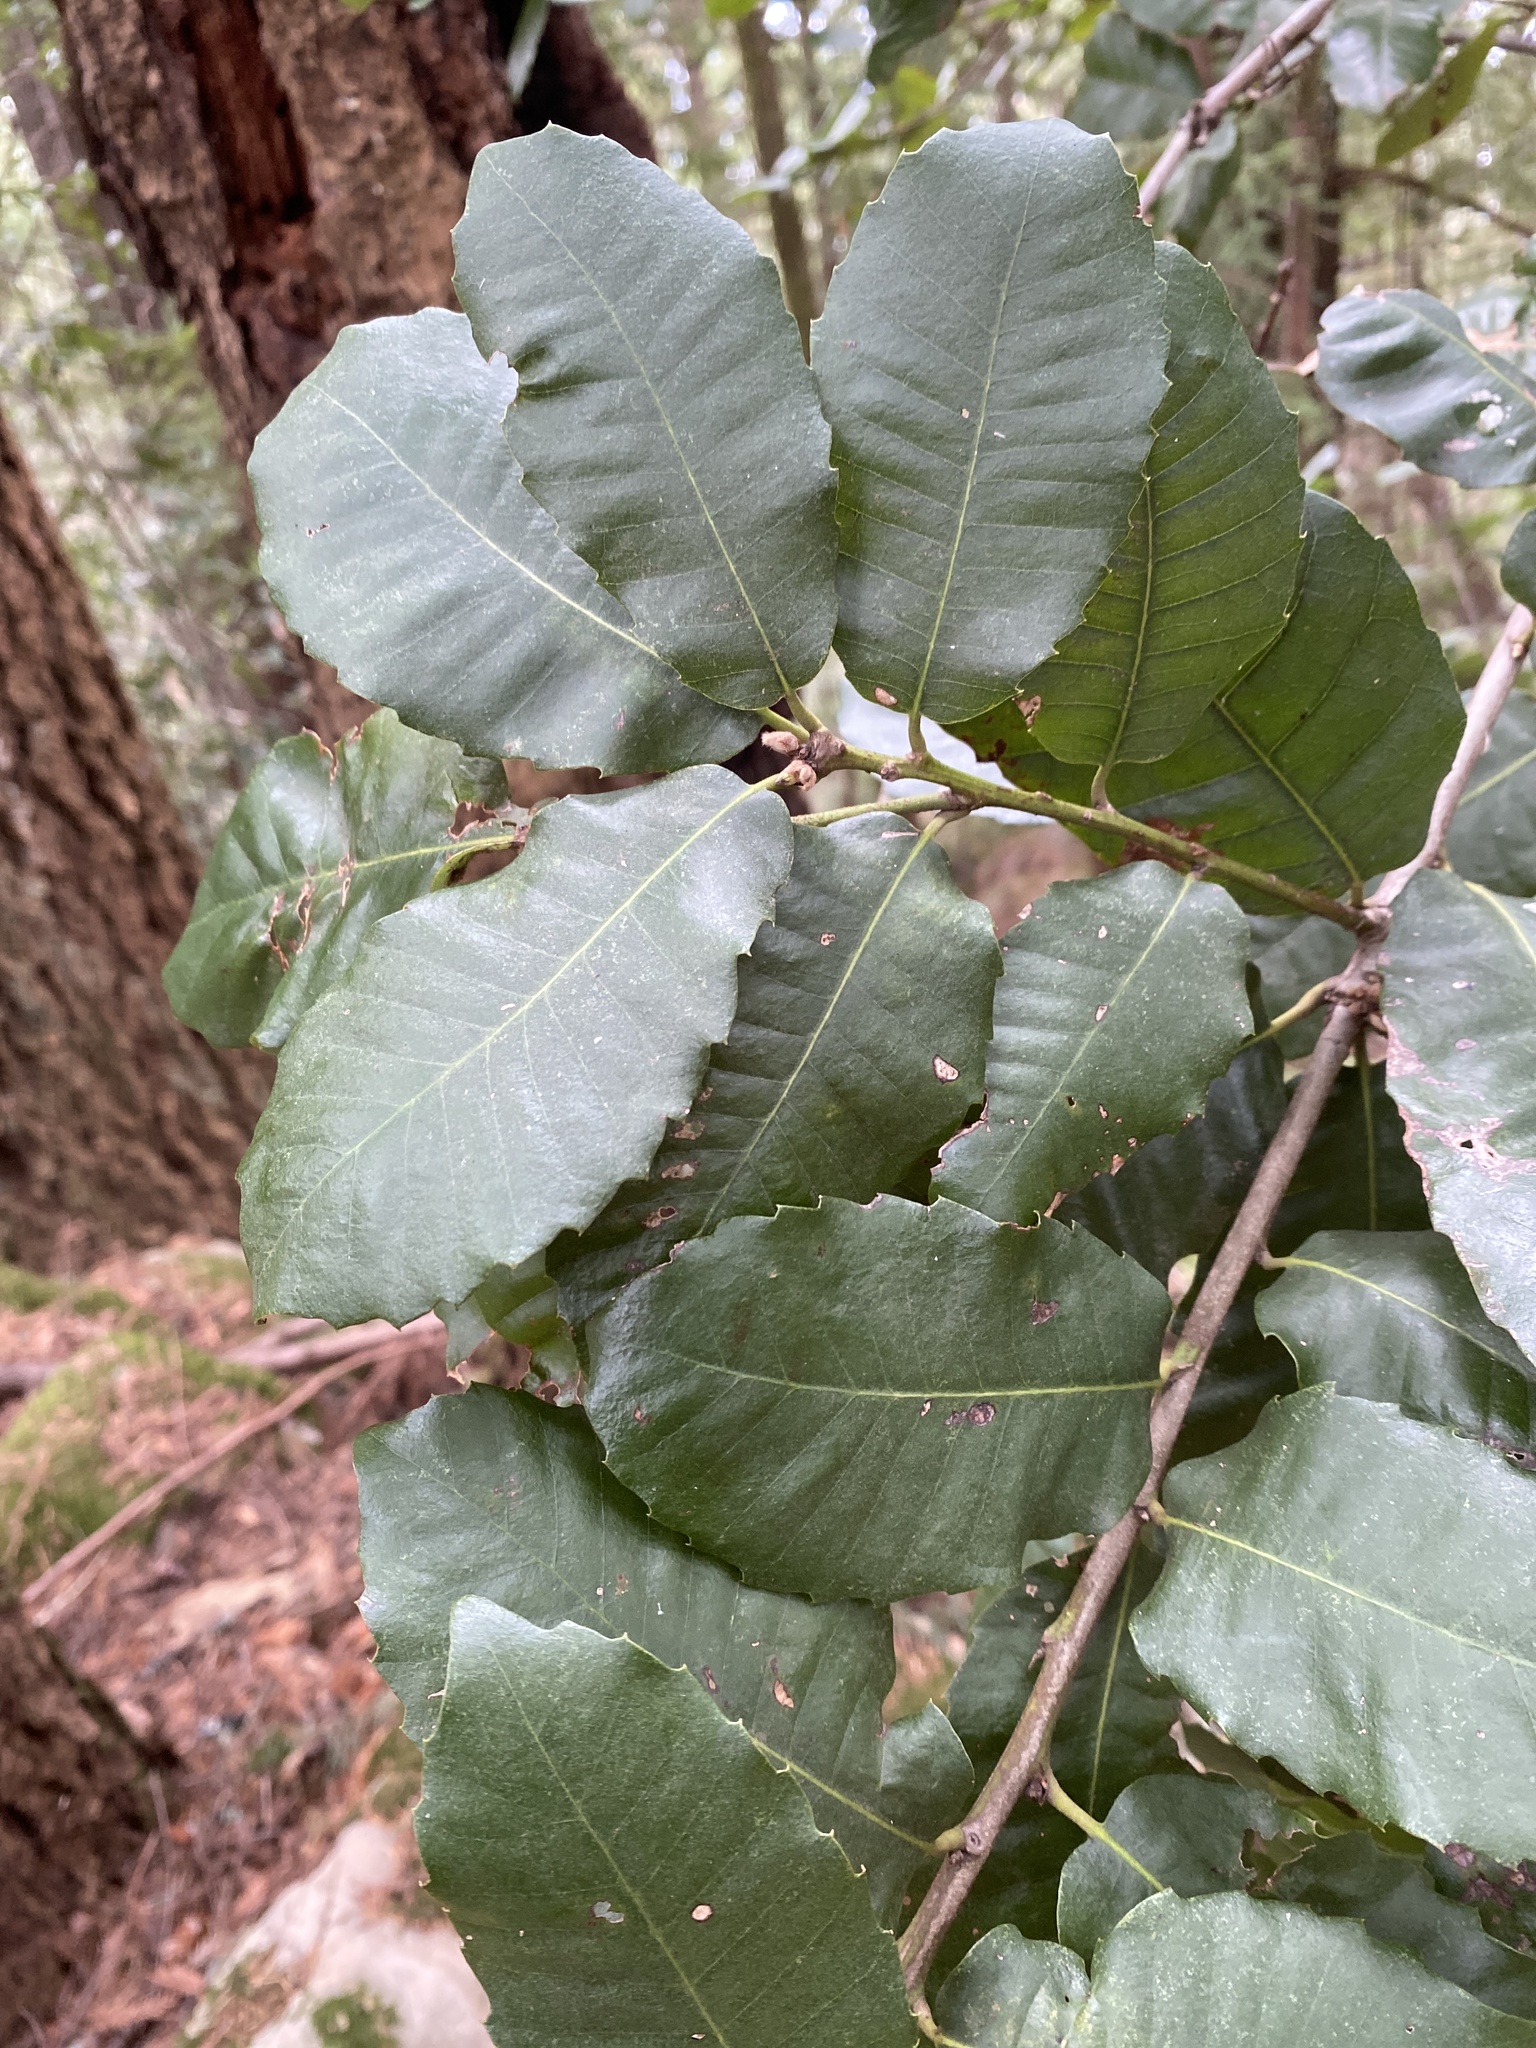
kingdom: Plantae
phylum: Tracheophyta
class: Magnoliopsida
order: Fagales
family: Fagaceae
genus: Notholithocarpus
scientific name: Notholithocarpus densiflorus
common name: Tan bark oak
